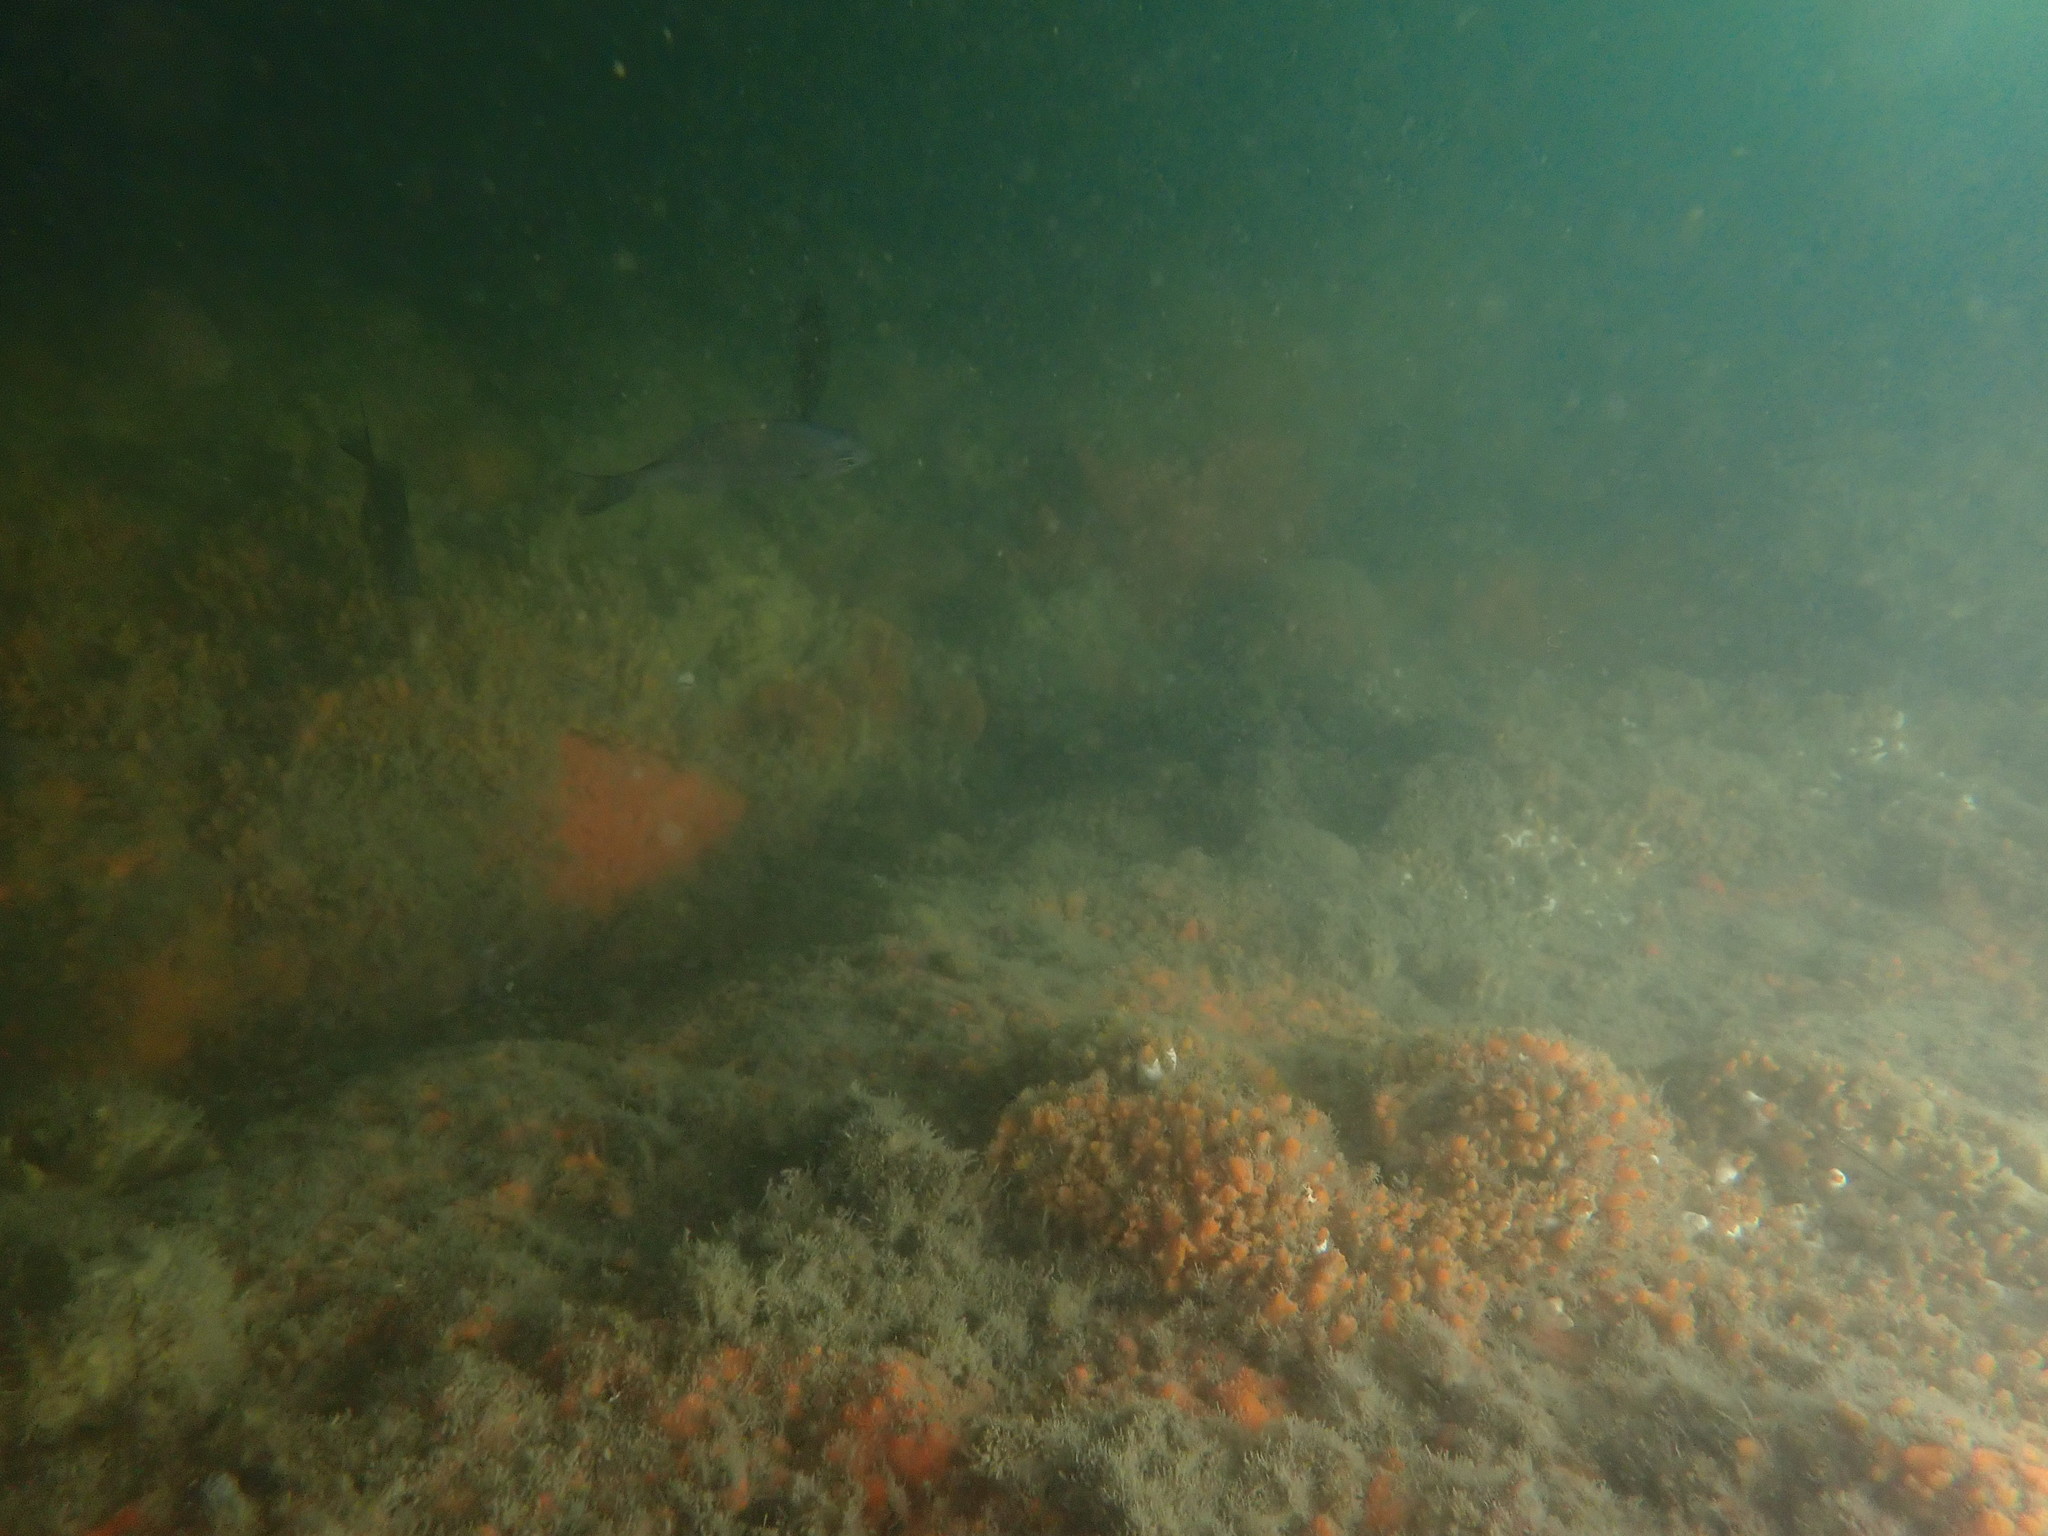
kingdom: Animalia
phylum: Chordata
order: Perciformes
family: Kyphosidae
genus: Scorpis
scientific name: Scorpis lineolata
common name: Sweep
